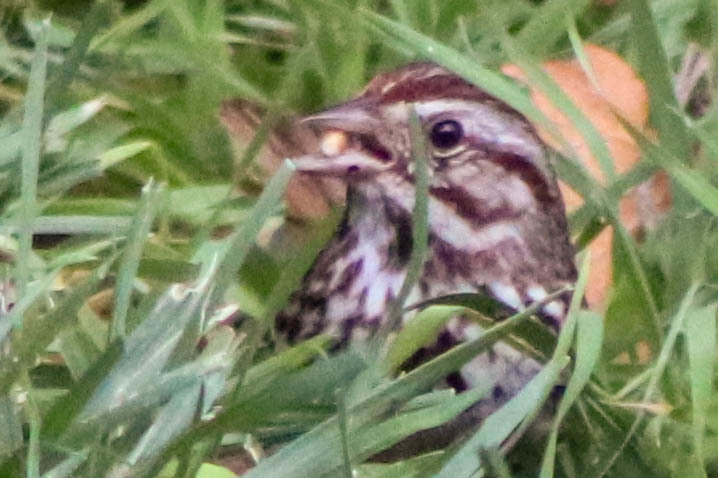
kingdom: Animalia
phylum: Chordata
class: Aves
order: Passeriformes
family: Passerellidae
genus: Melospiza
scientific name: Melospiza melodia
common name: Song sparrow
